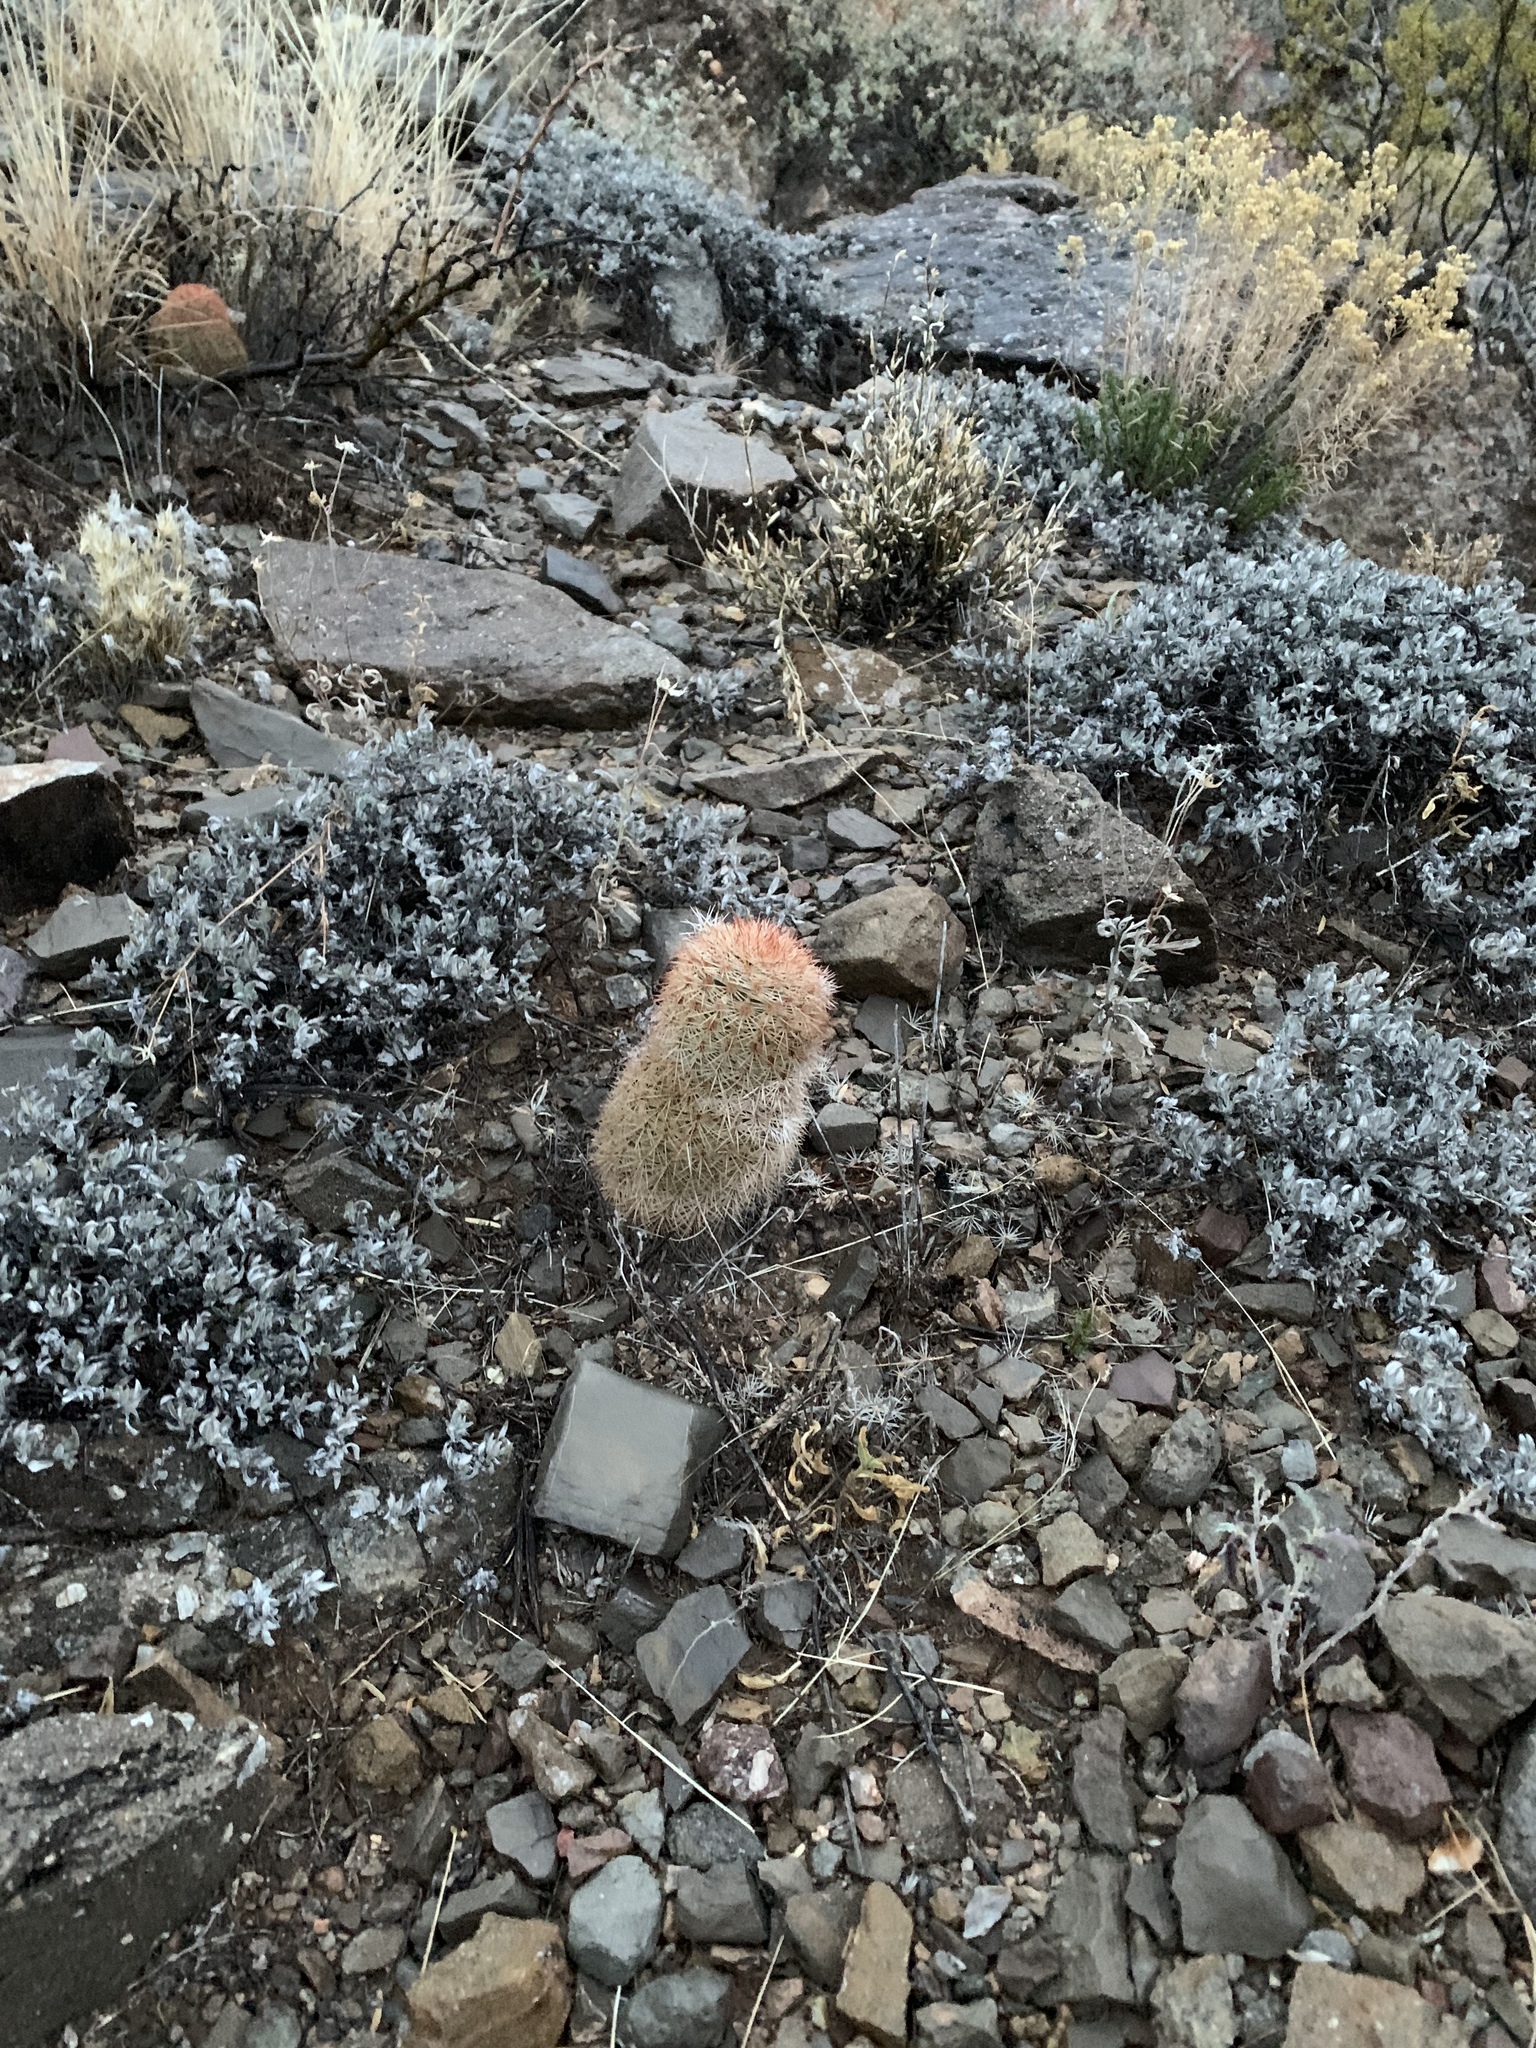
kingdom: Plantae
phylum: Tracheophyta
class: Magnoliopsida
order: Caryophyllales
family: Cactaceae
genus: Echinocereus
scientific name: Echinocereus dasyacanthus
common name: Spiny hedgehog cactus
